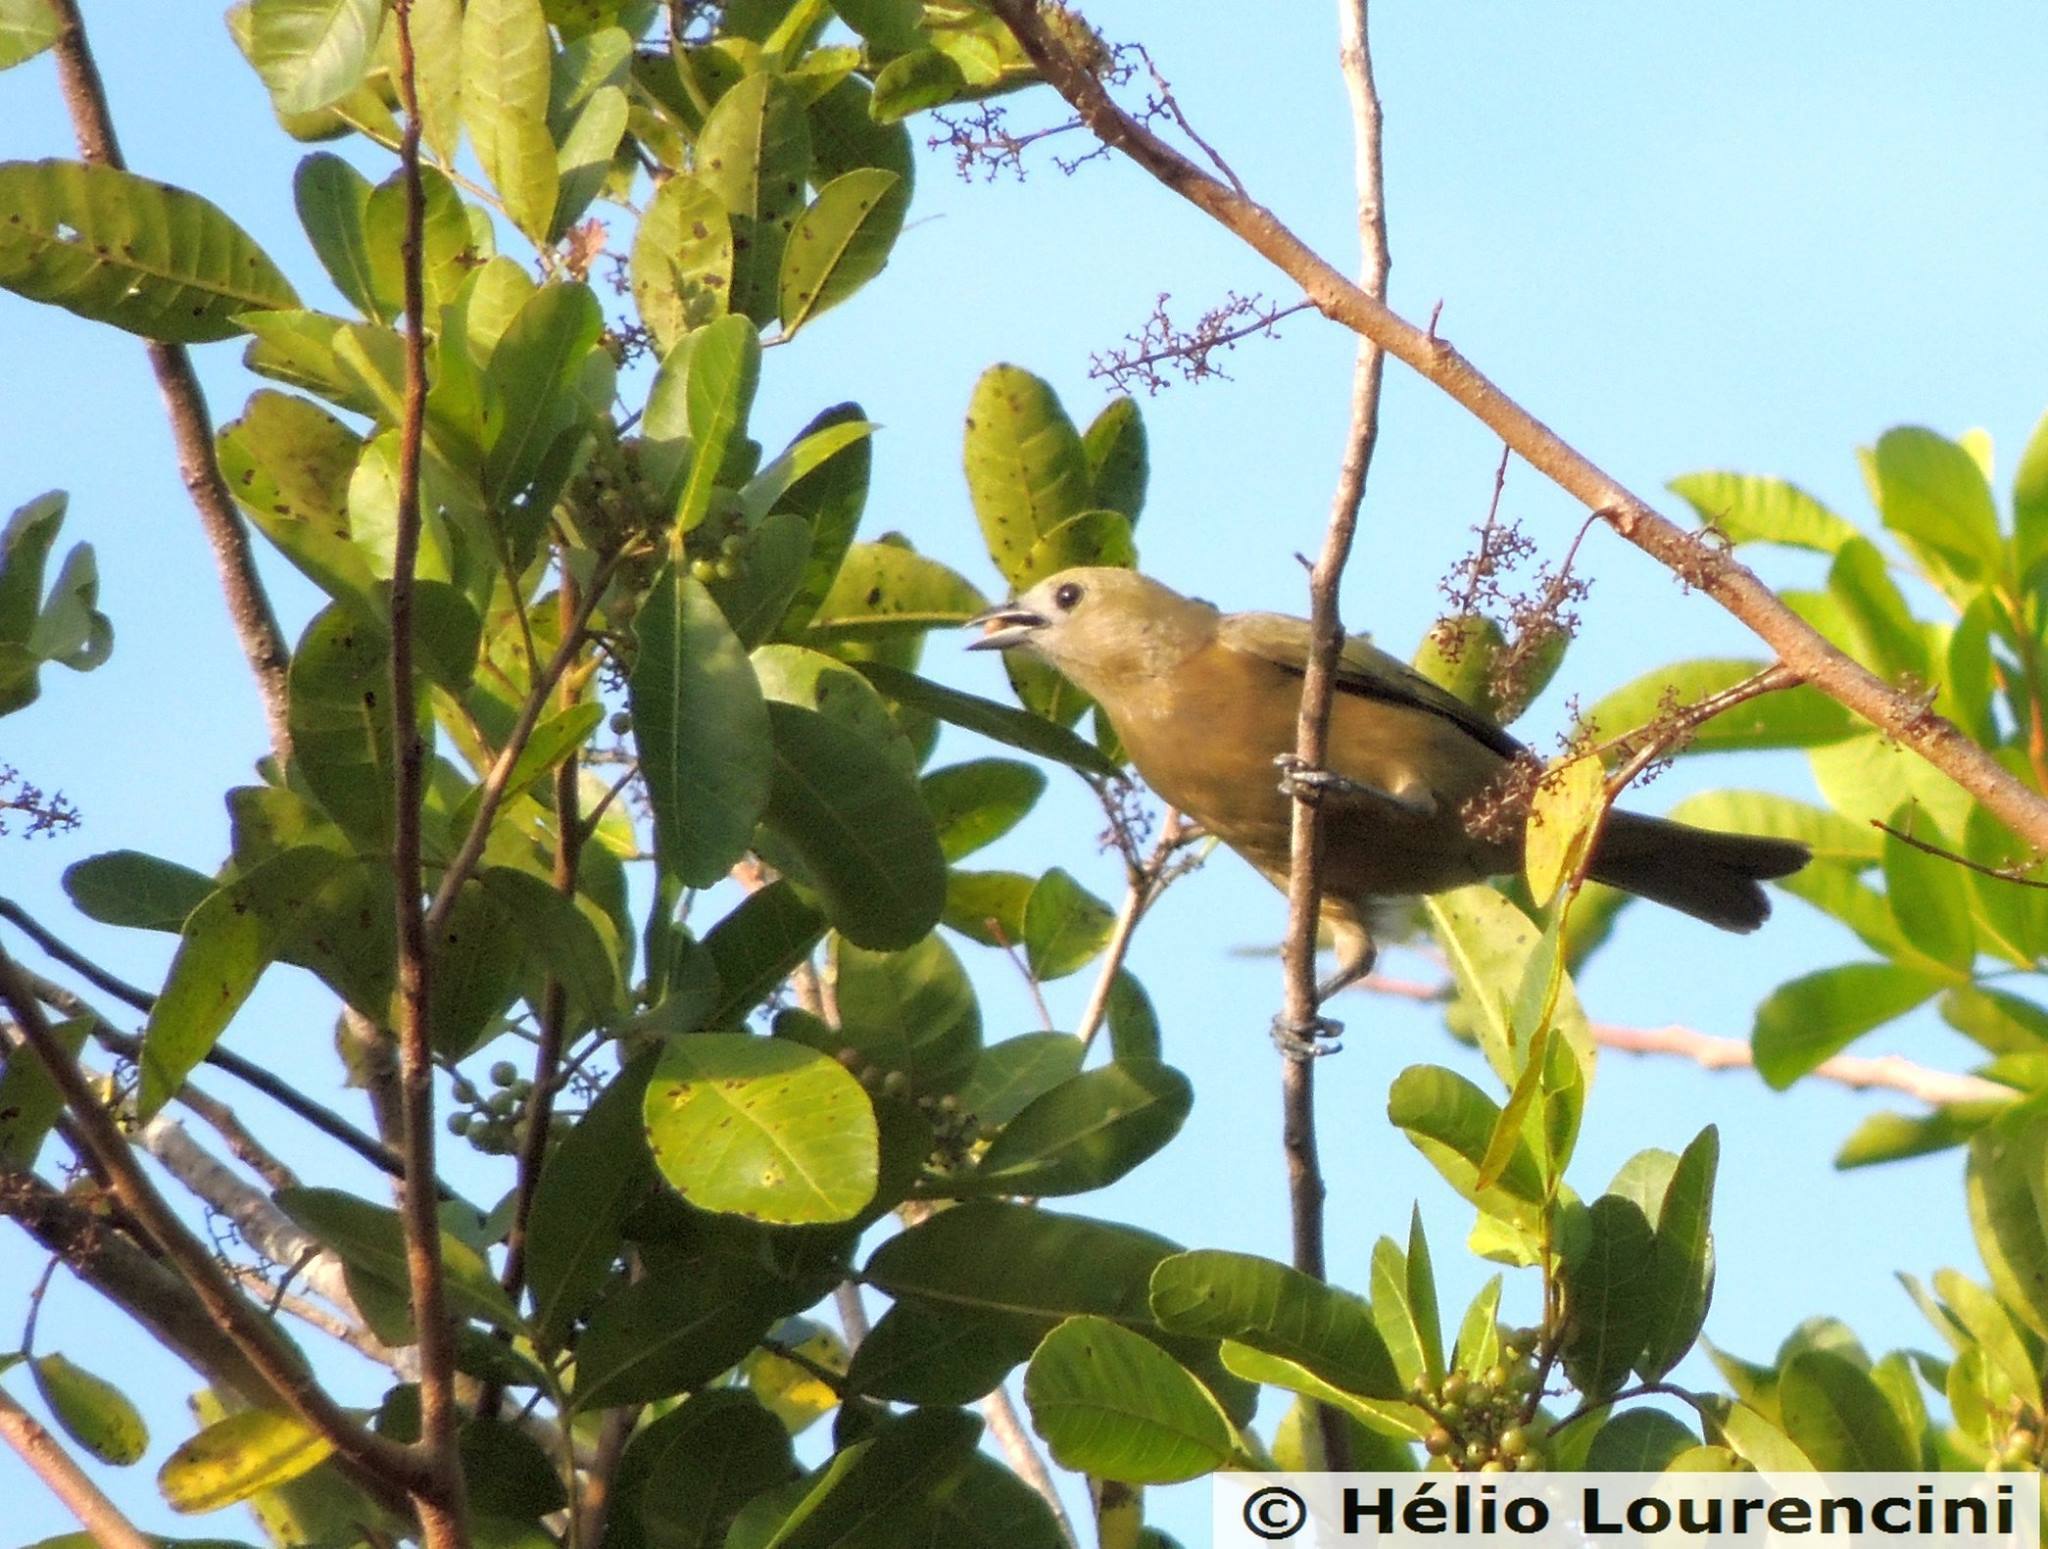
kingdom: Animalia
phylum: Chordata
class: Aves
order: Passeriformes
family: Thraupidae
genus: Thraupis
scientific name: Thraupis palmarum
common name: Palm tanager
